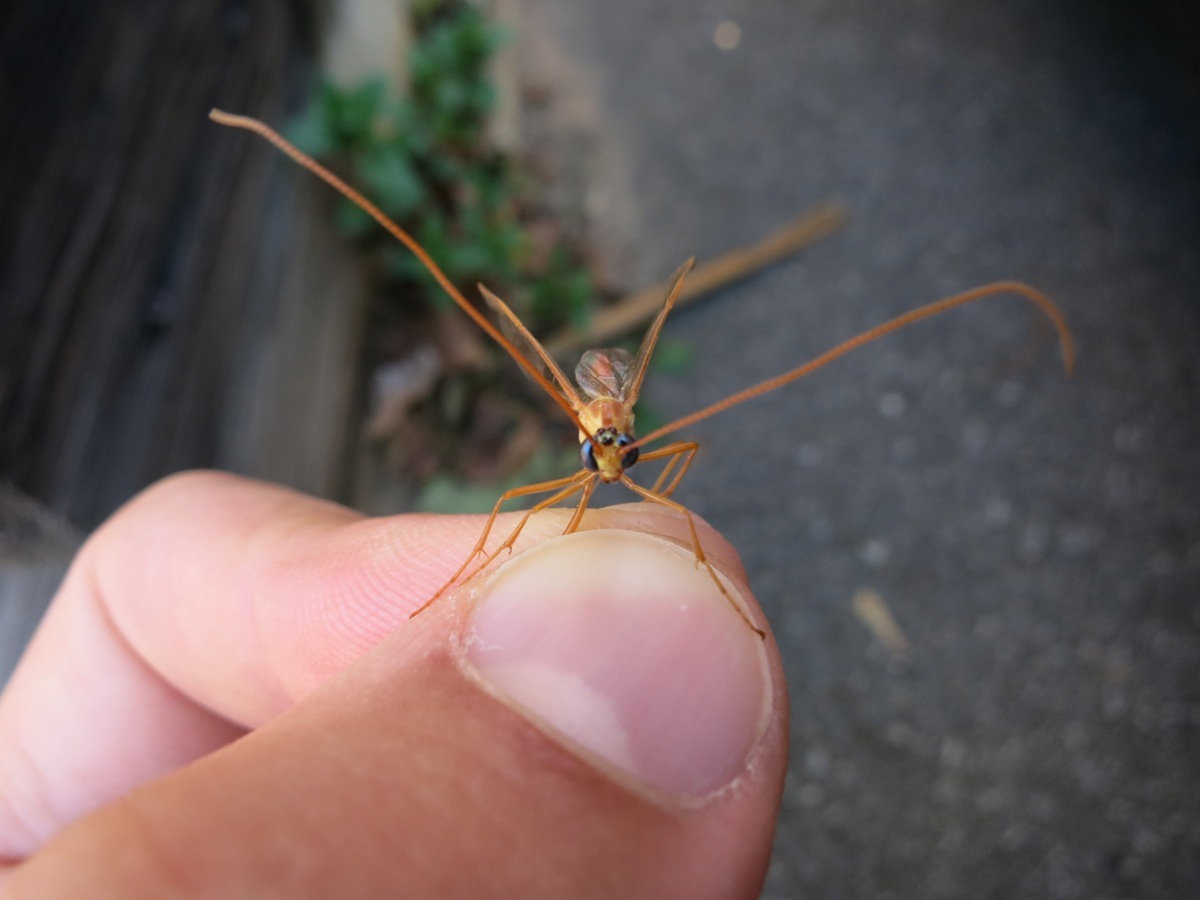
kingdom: Animalia
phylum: Arthropoda
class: Insecta
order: Hymenoptera
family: Ichneumonidae
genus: Enicospilus
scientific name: Enicospilus purgatus
